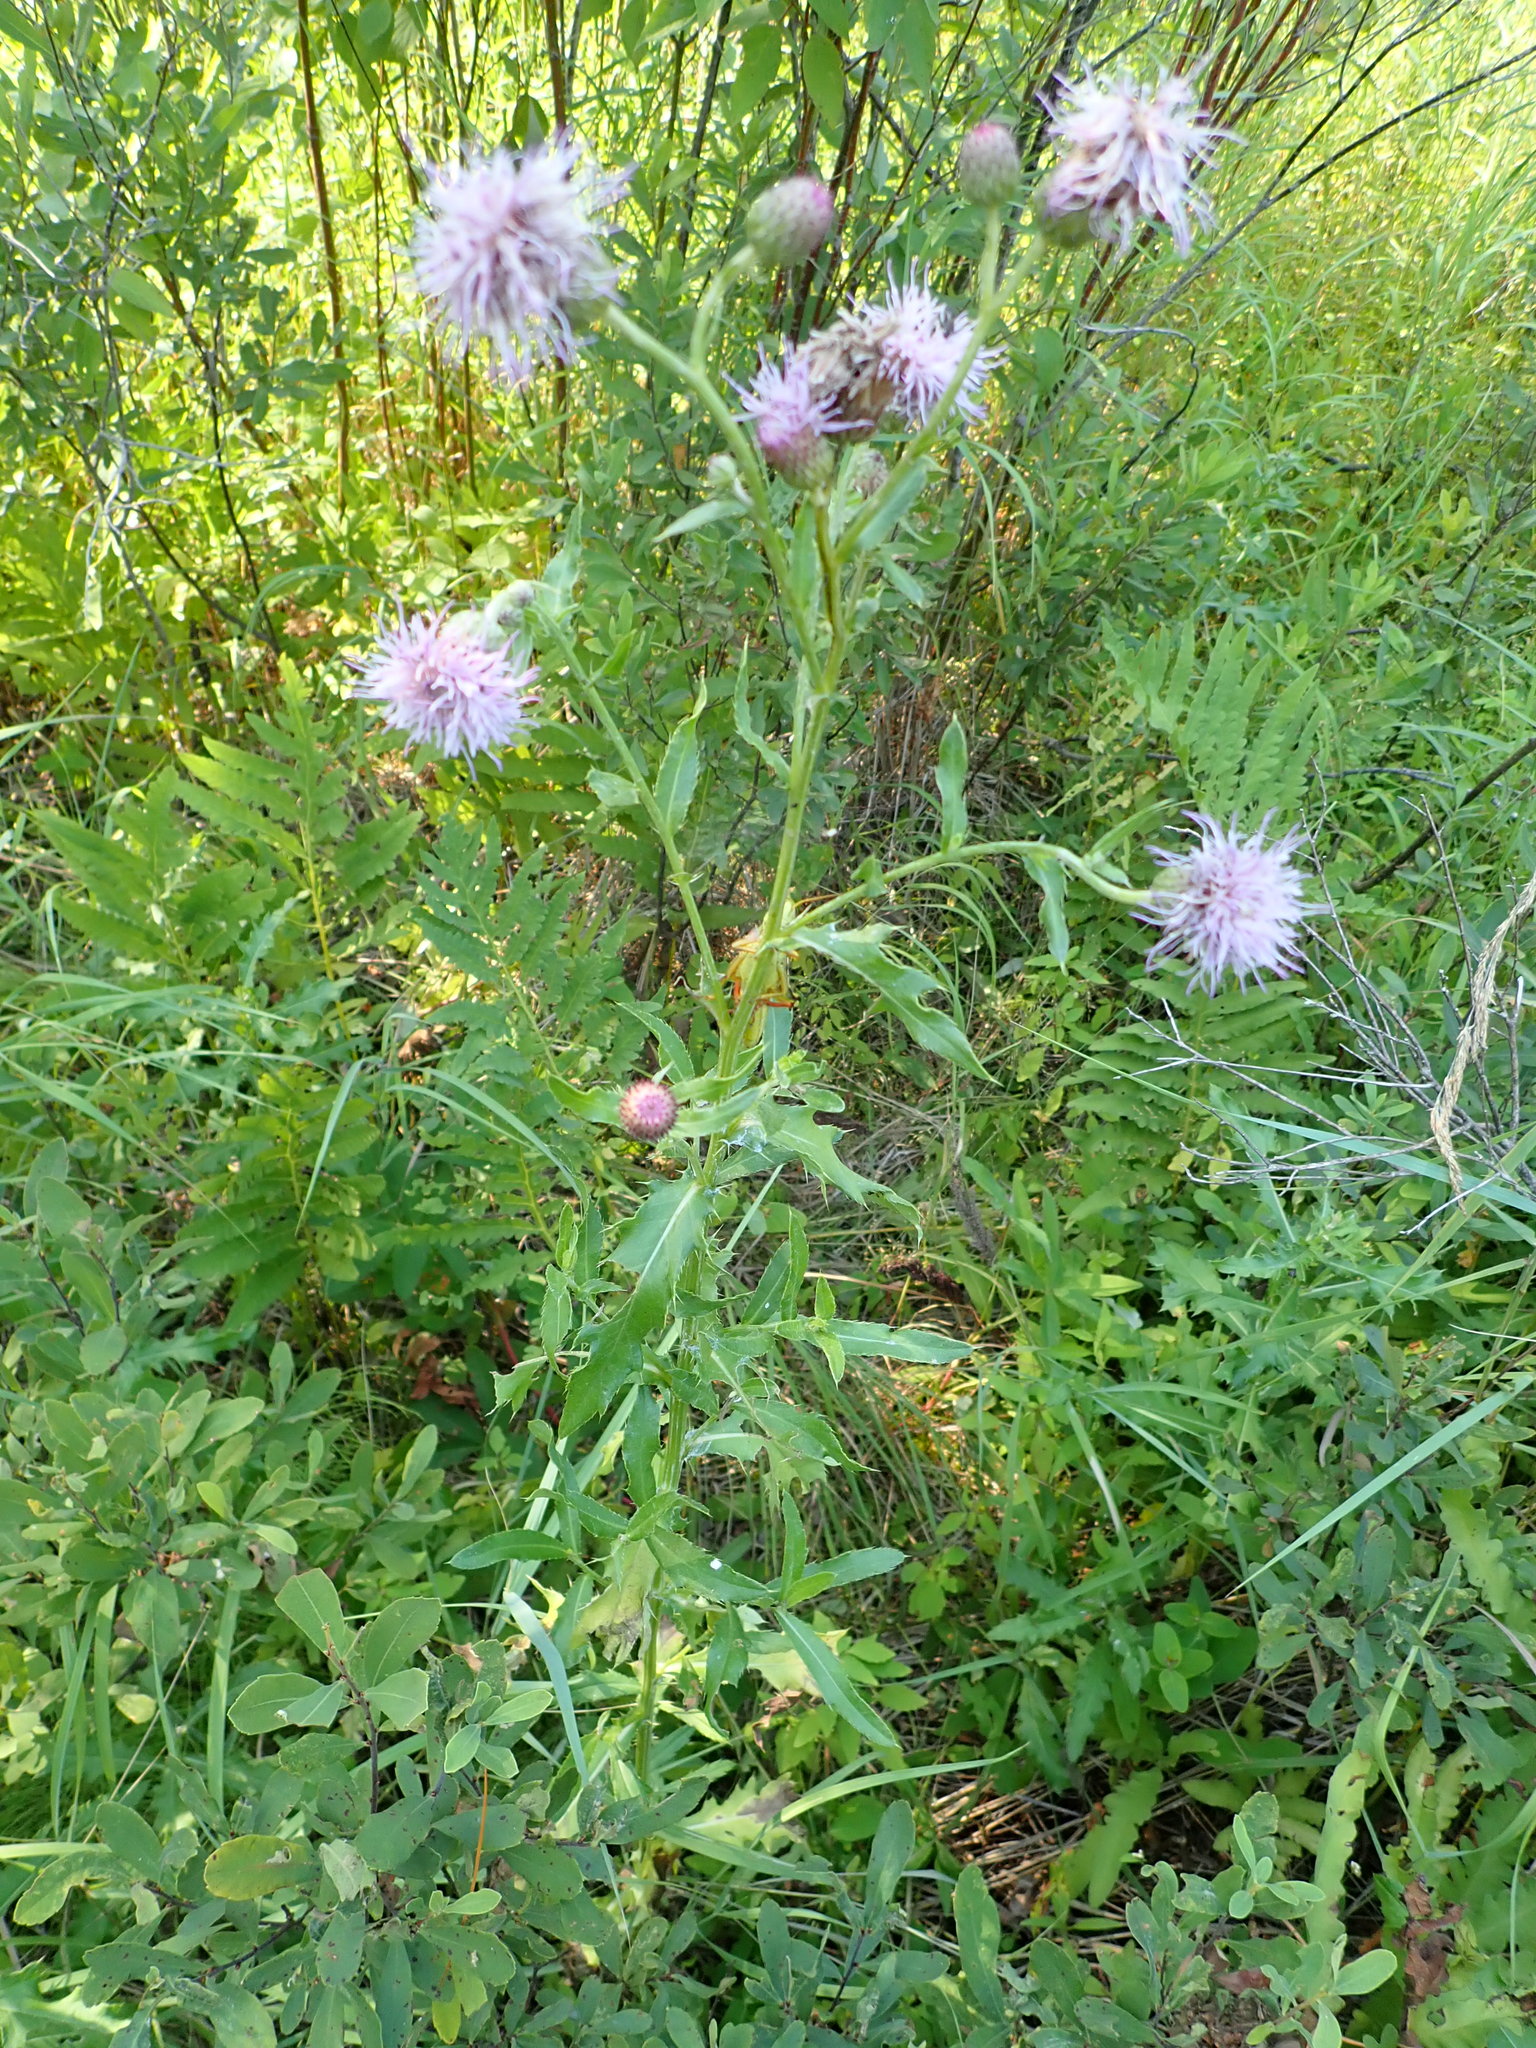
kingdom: Plantae
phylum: Tracheophyta
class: Magnoliopsida
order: Asterales
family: Asteraceae
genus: Cirsium
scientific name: Cirsium arvense
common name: Creeping thistle
